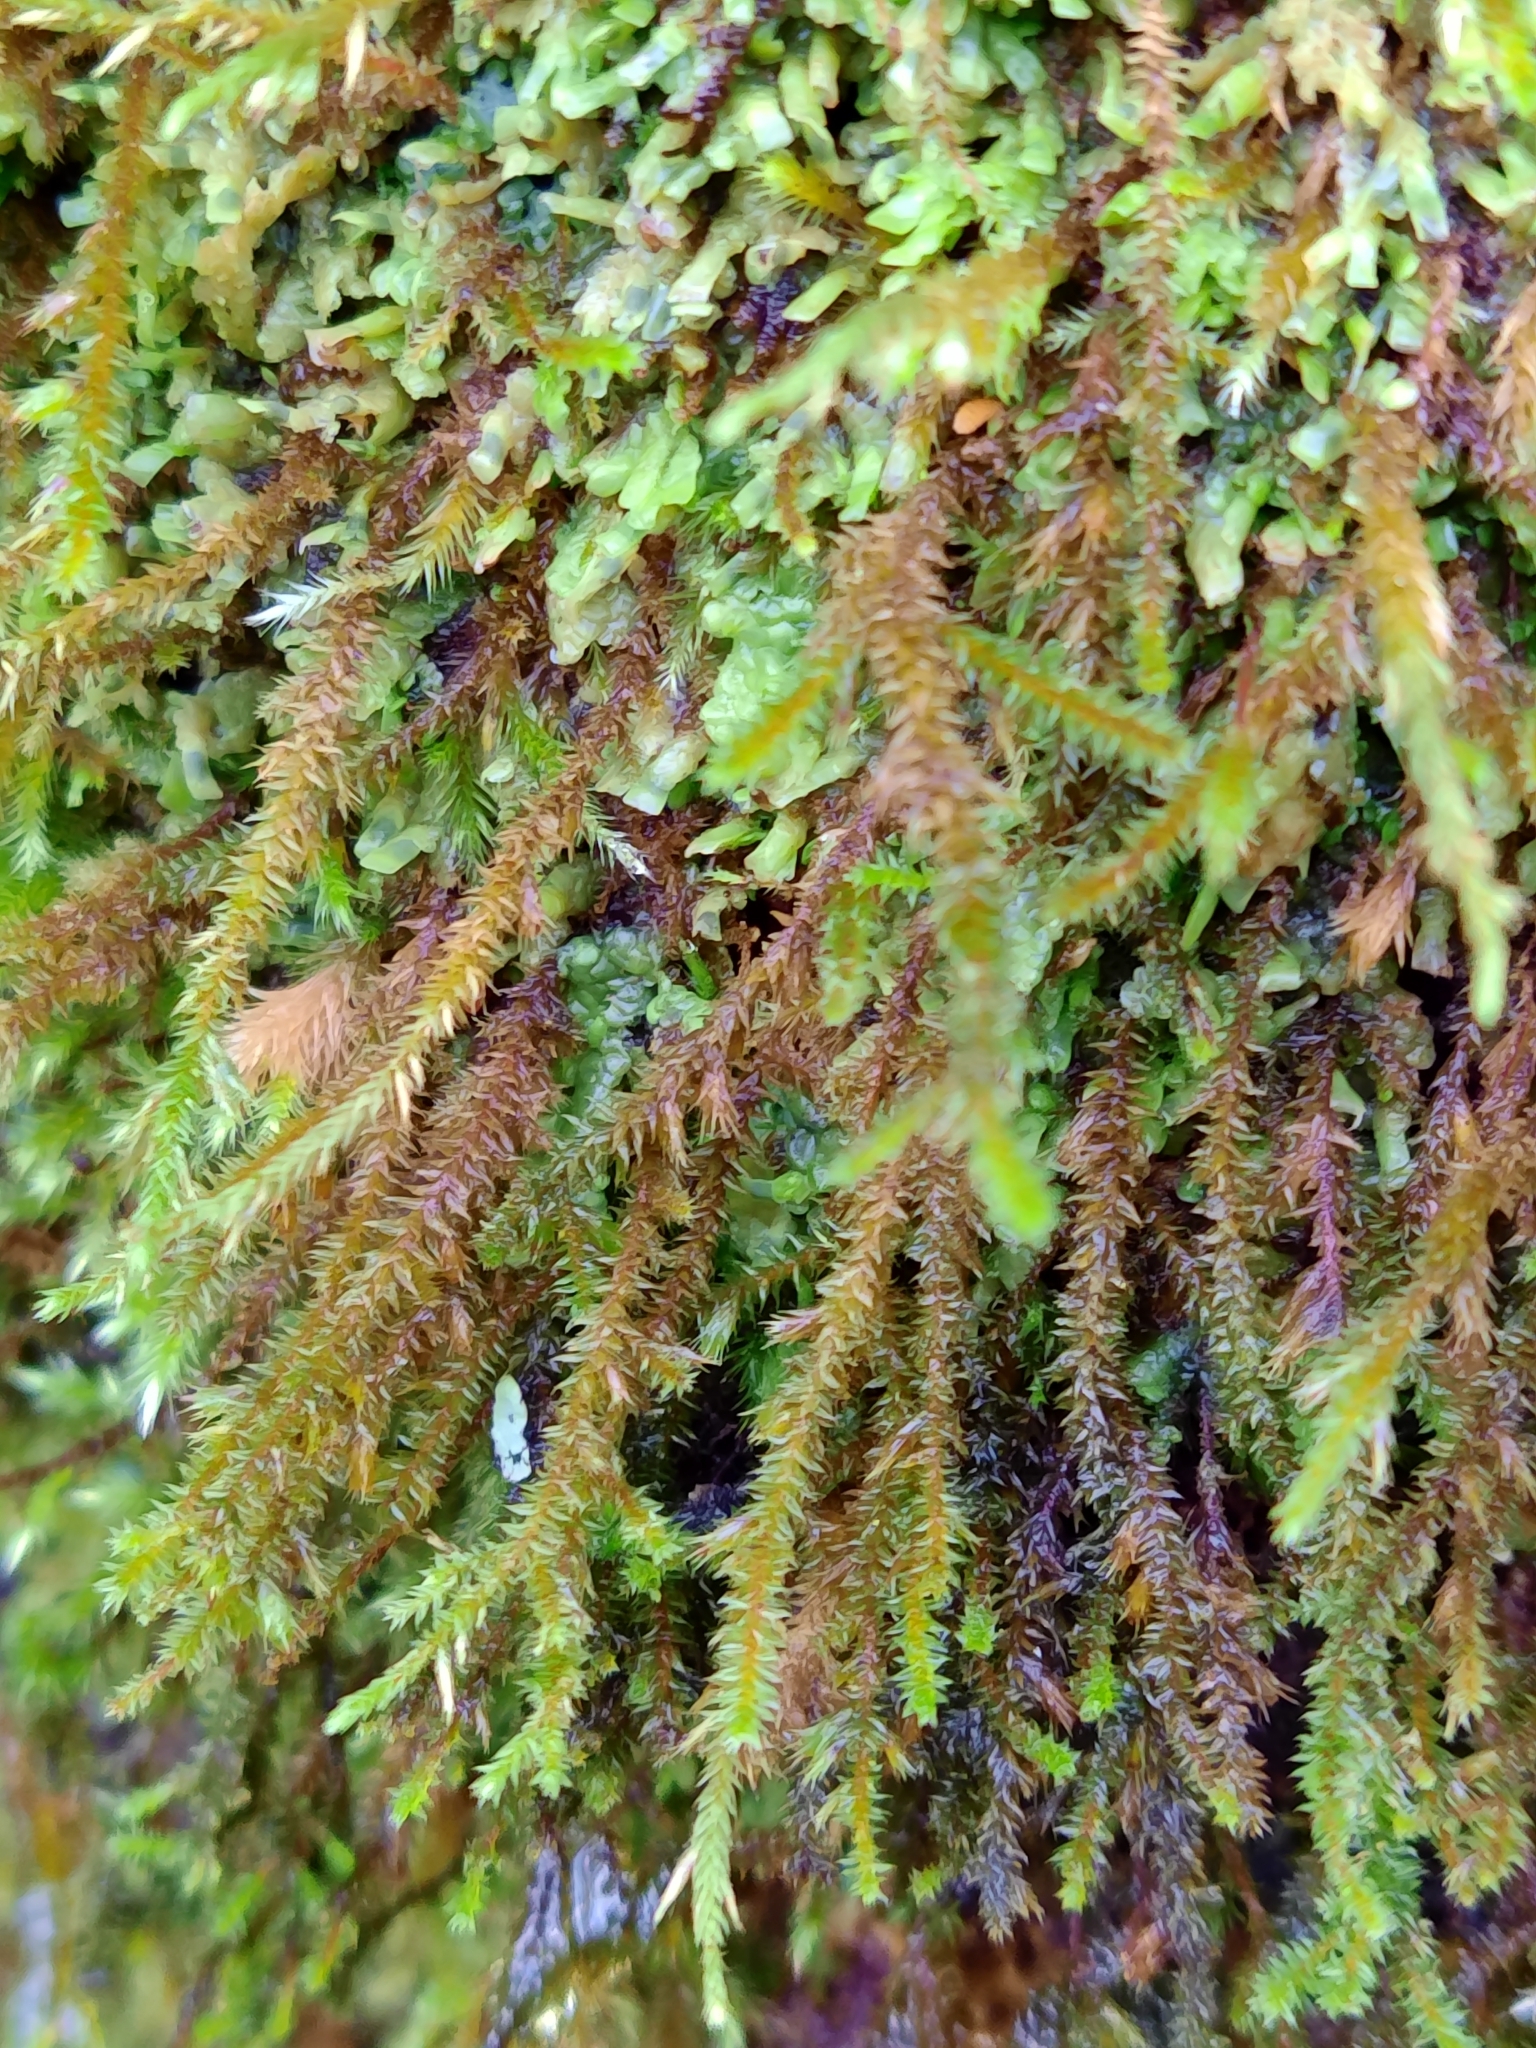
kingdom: Plantae
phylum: Bryophyta
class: Bryopsida
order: Hypnales
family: Cryphaeaceae
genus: Cryphaea
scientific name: Cryphaea heteromalla
